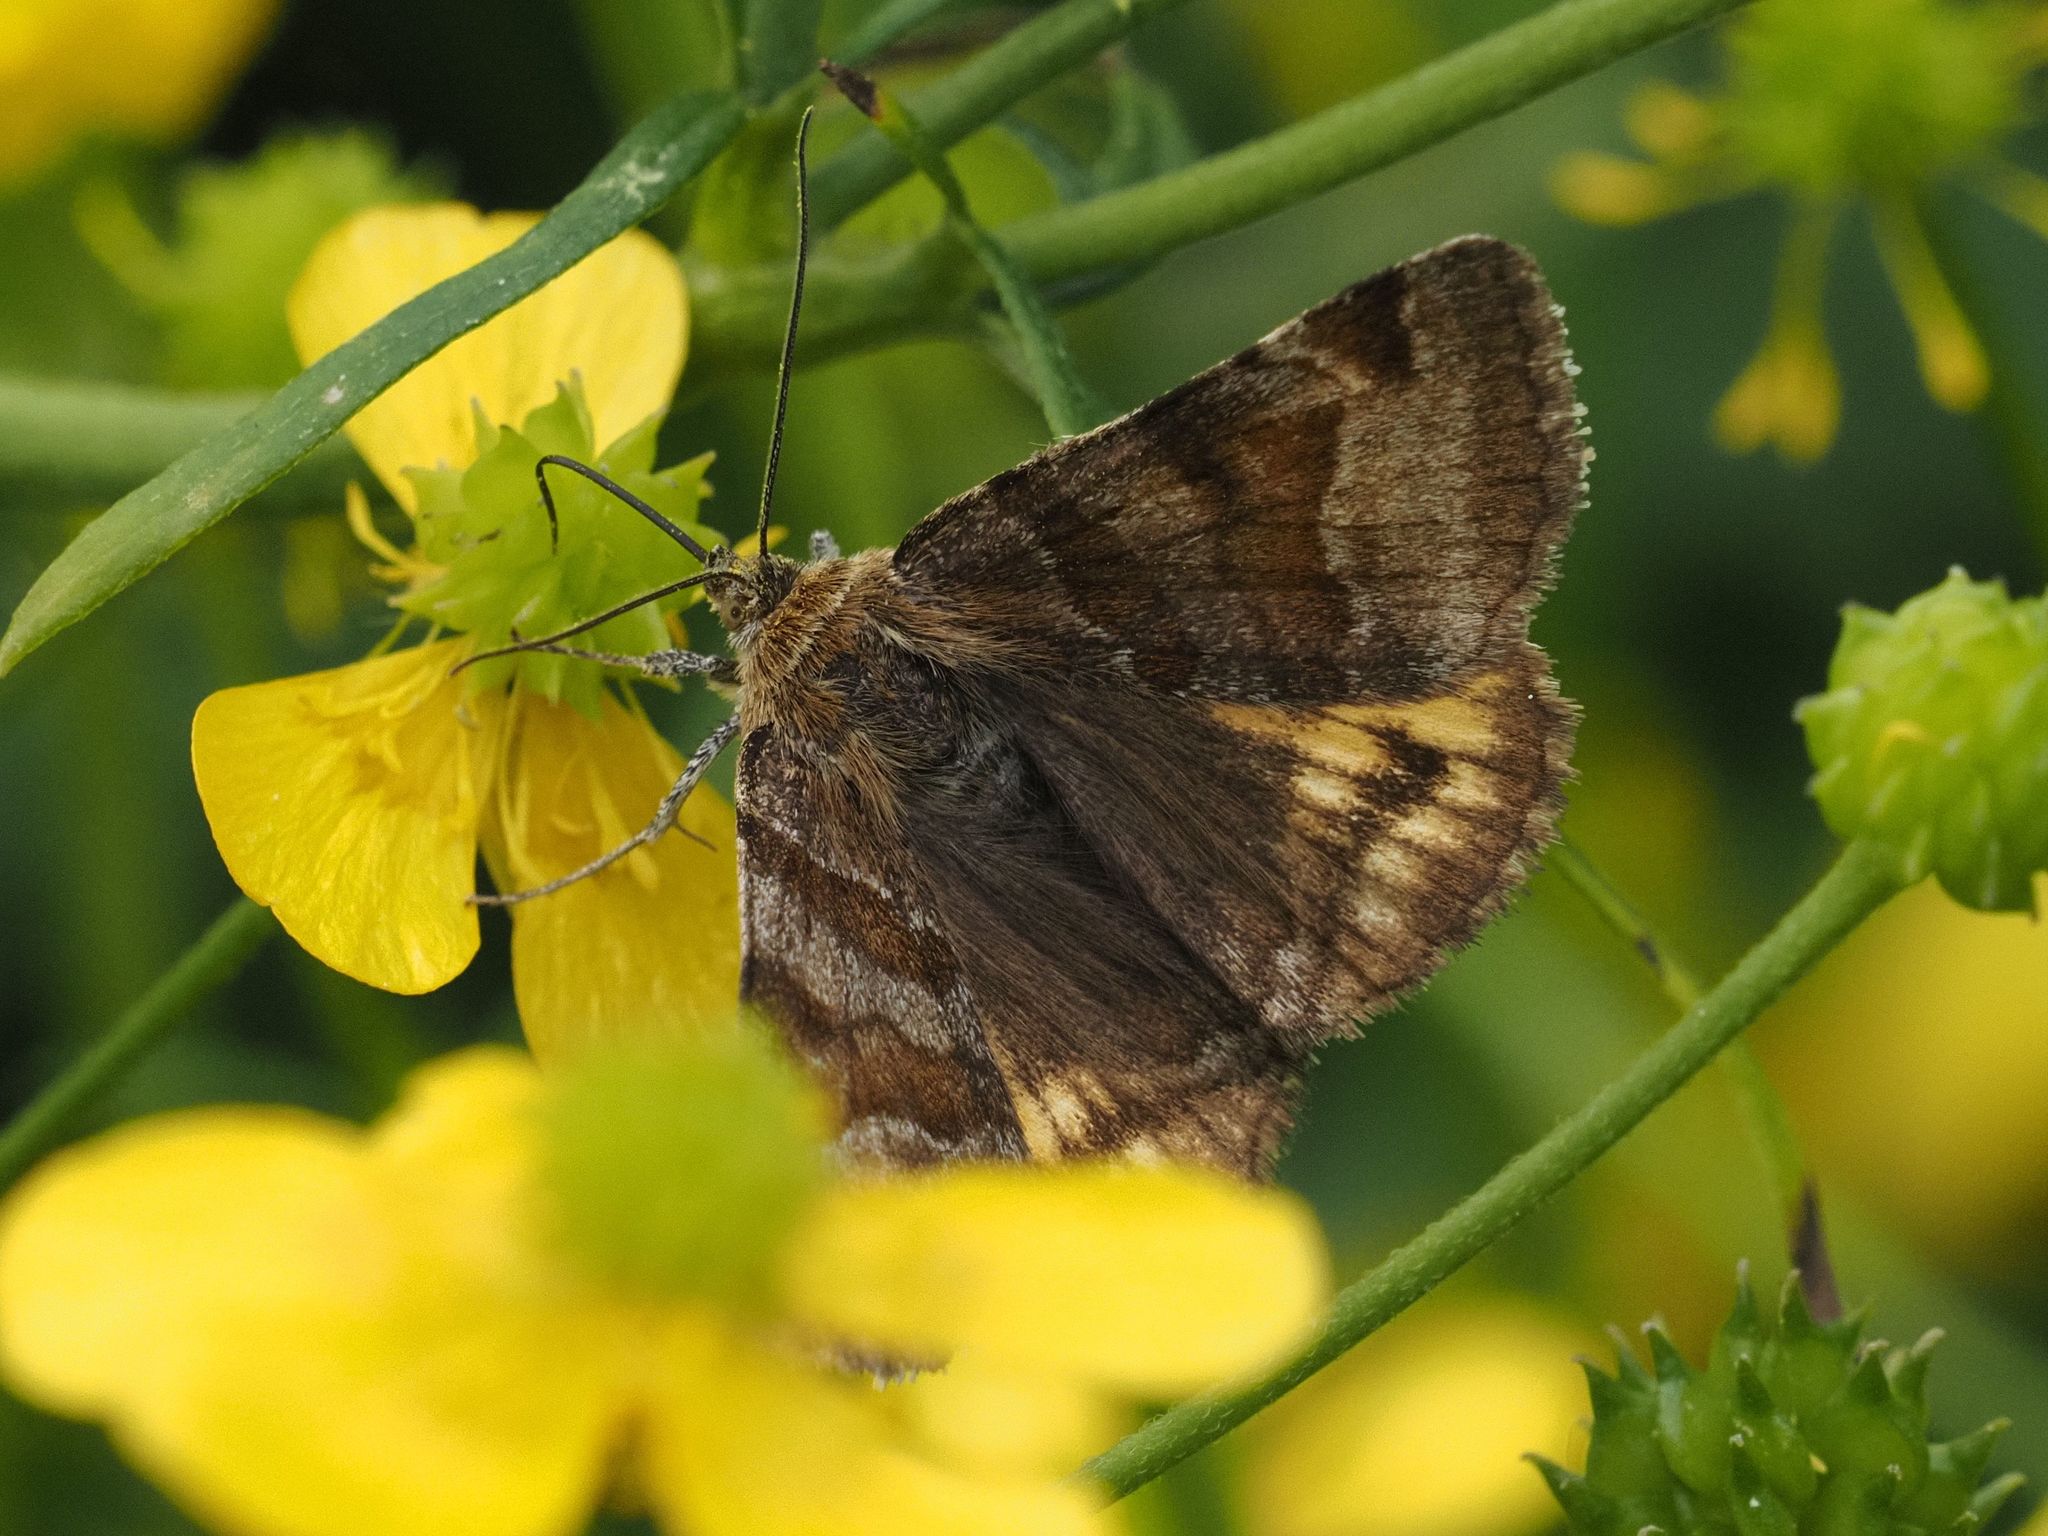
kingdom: Animalia
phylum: Arthropoda
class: Insecta
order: Lepidoptera
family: Erebidae
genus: Euclidia
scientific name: Euclidia glyphica
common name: Burnet companion
